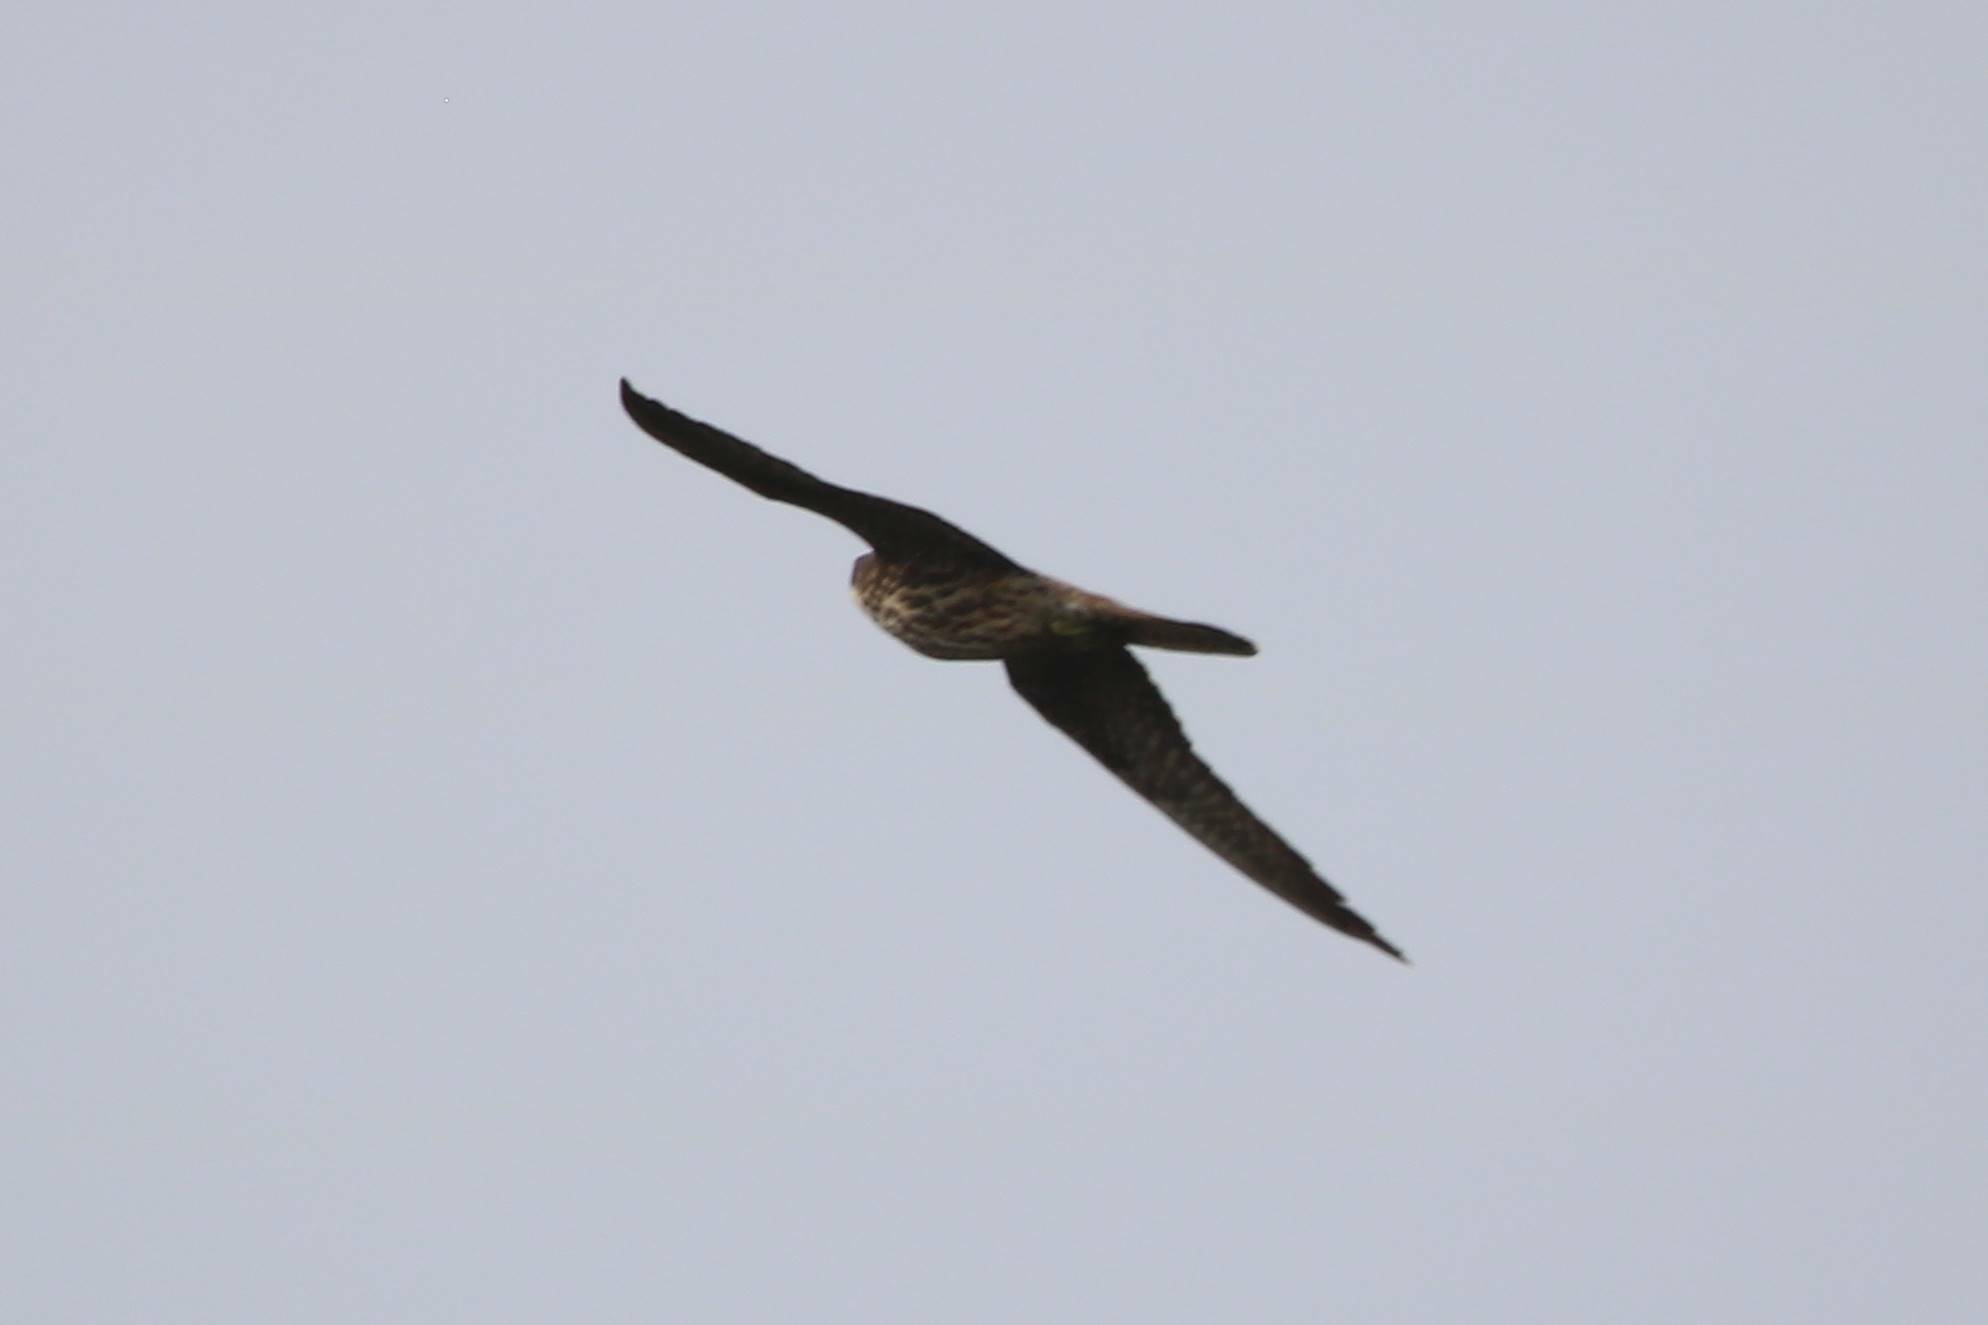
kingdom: Animalia
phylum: Chordata
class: Aves
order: Falconiformes
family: Falconidae
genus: Falco
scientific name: Falco eleonorae
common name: Eleonora's falcon
